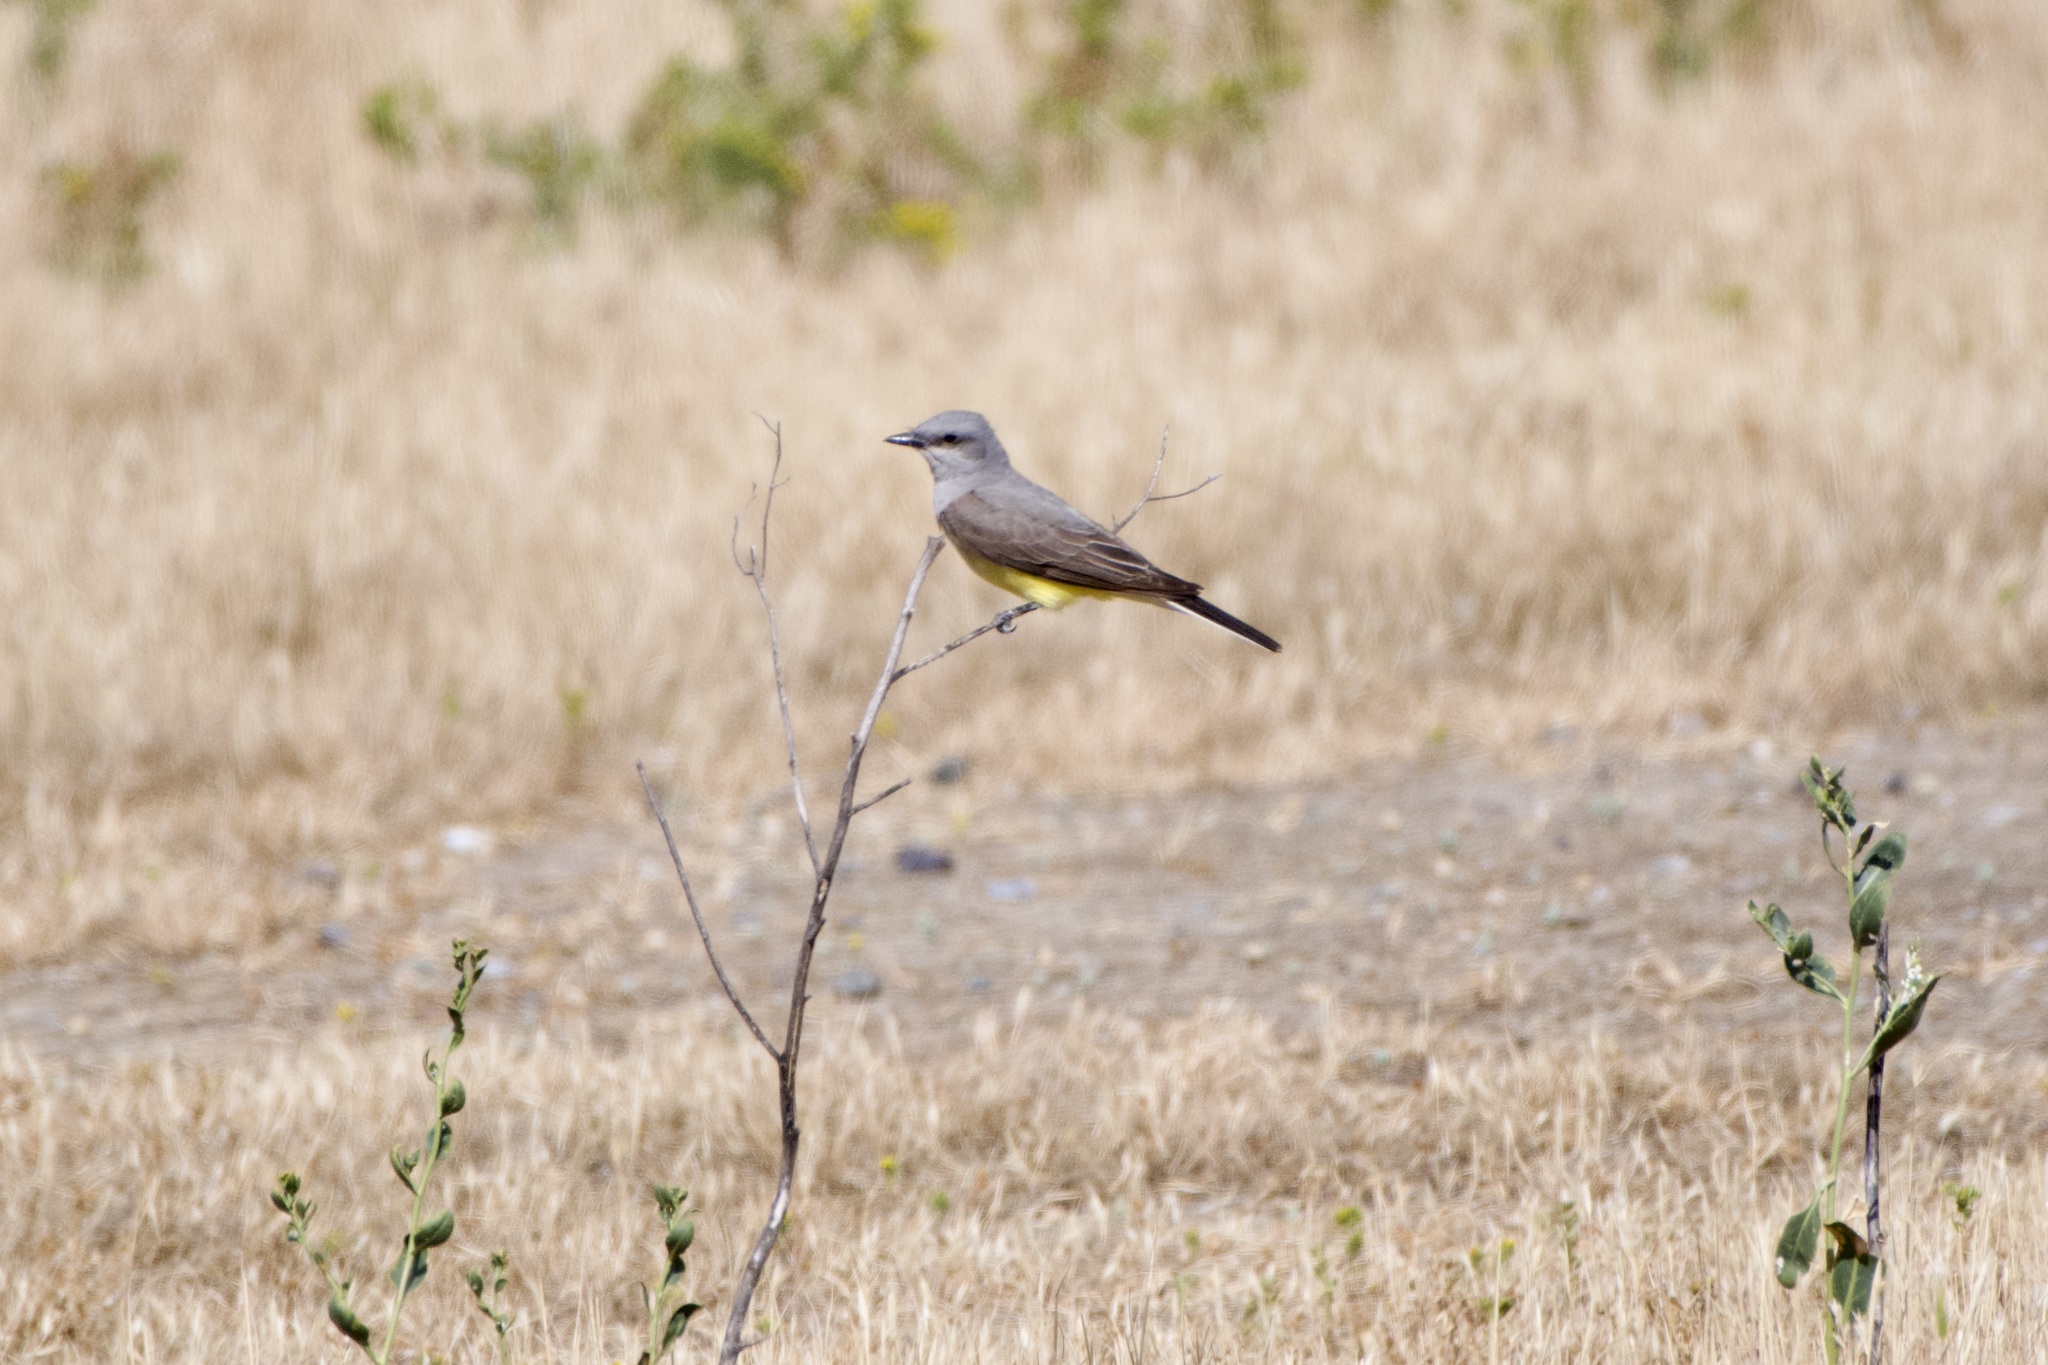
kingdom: Animalia
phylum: Chordata
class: Aves
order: Passeriformes
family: Tyrannidae
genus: Tyrannus
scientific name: Tyrannus verticalis
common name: Western kingbird
